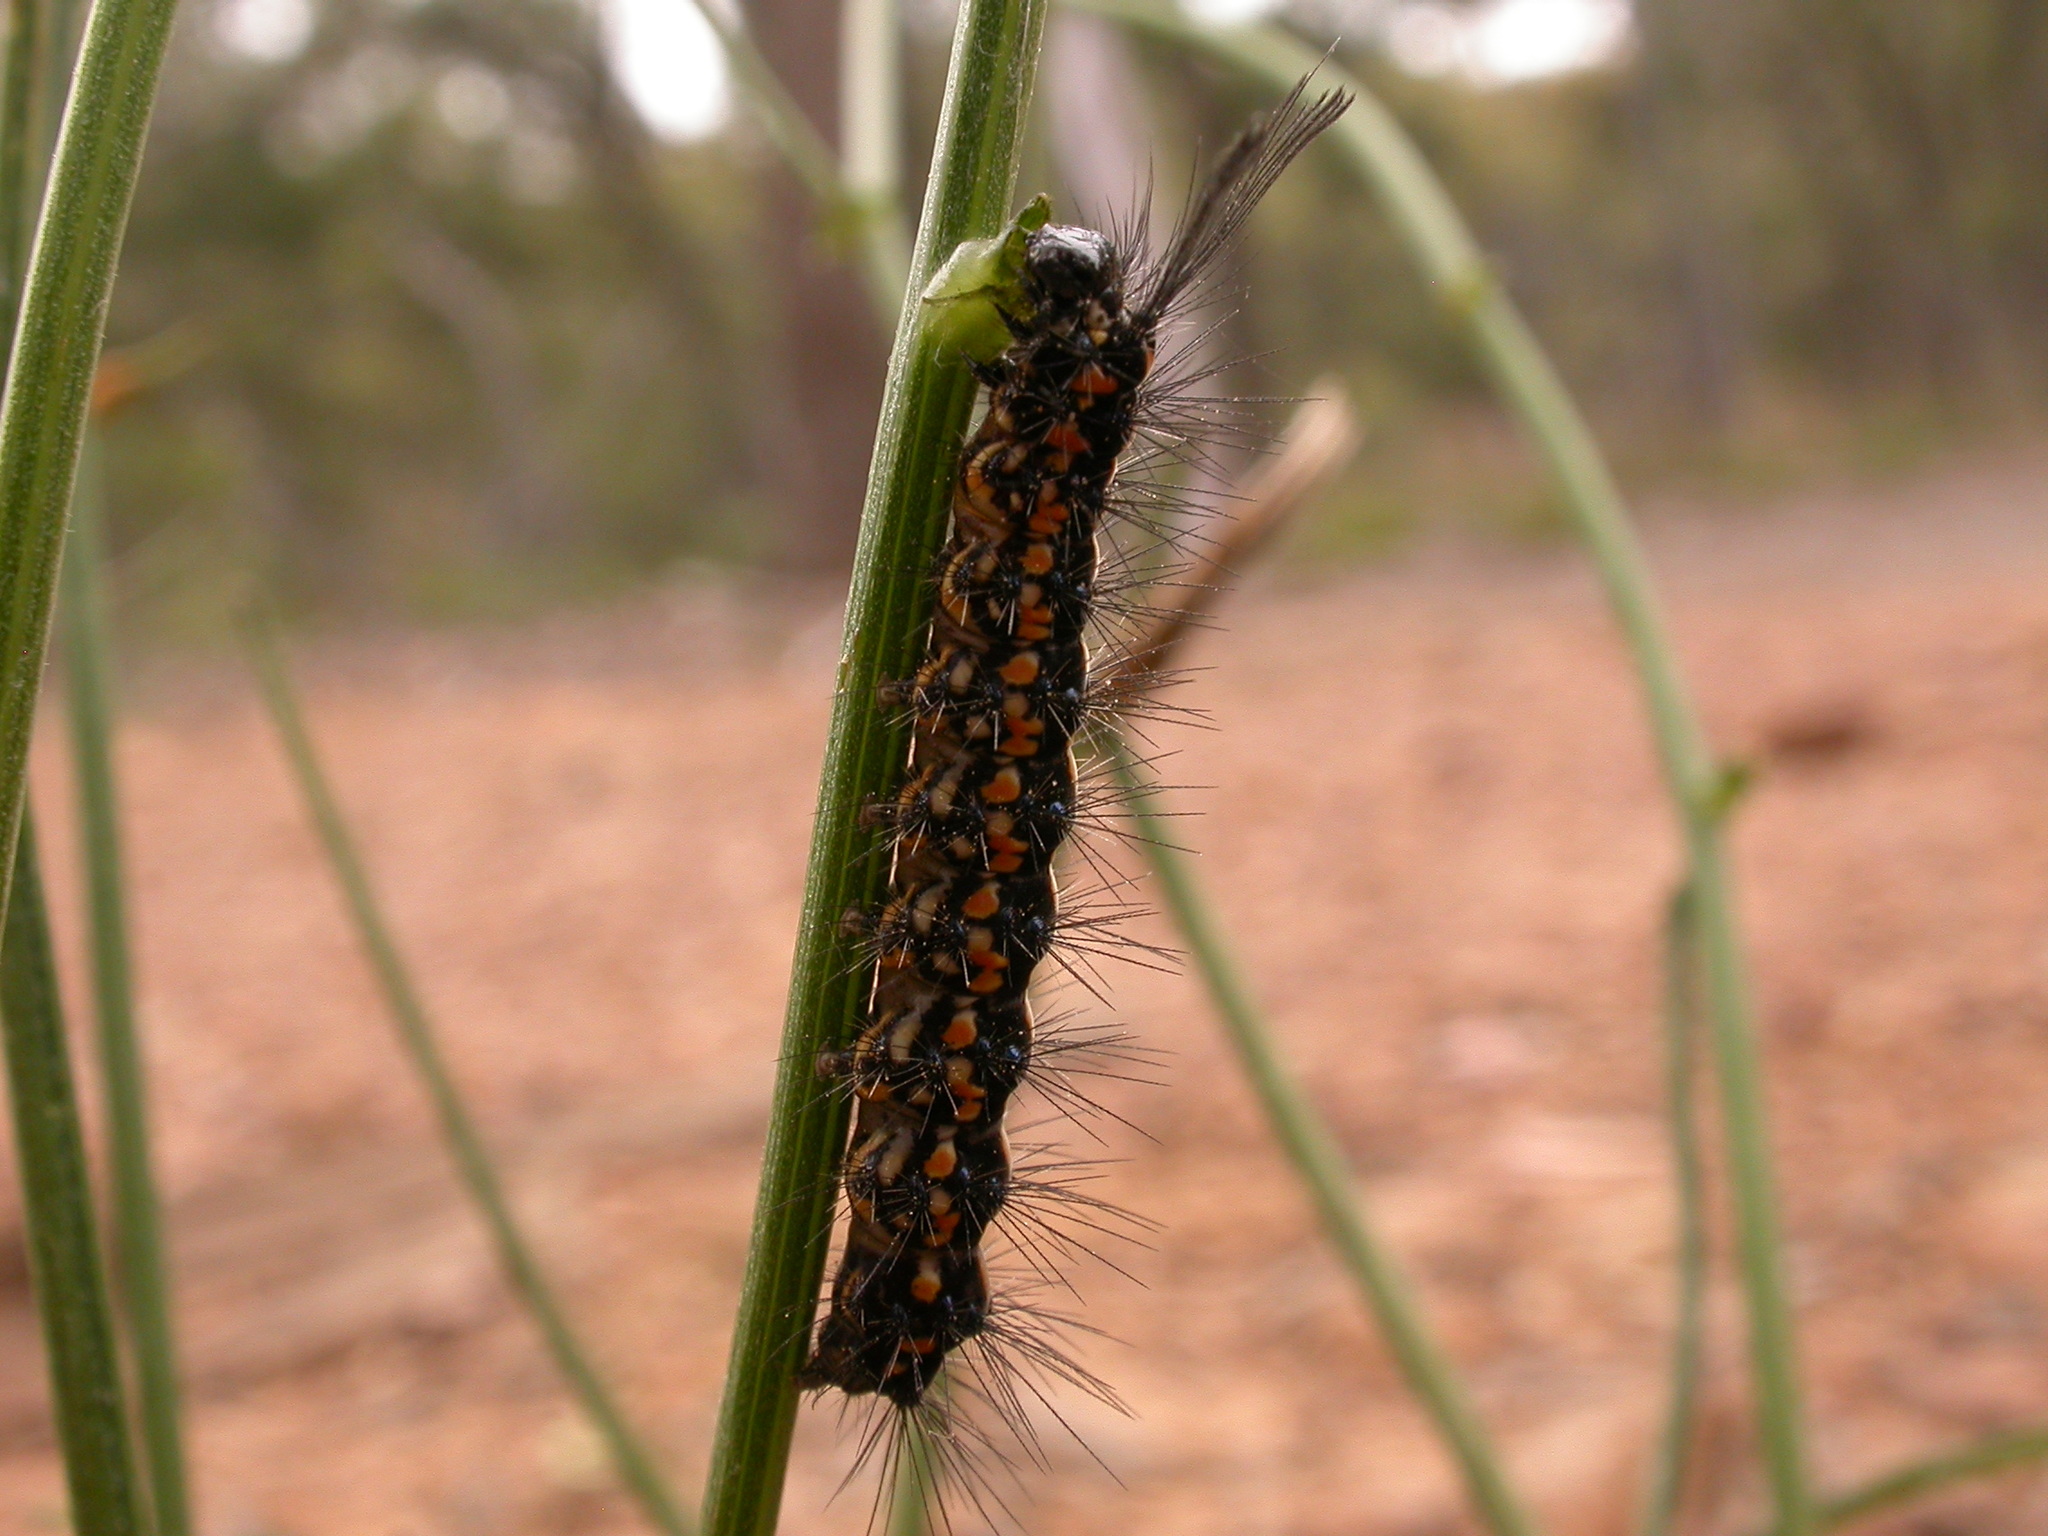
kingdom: Animalia
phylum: Arthropoda
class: Insecta
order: Lepidoptera
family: Erebidae
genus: Nyctemera
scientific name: Nyctemera amicus
